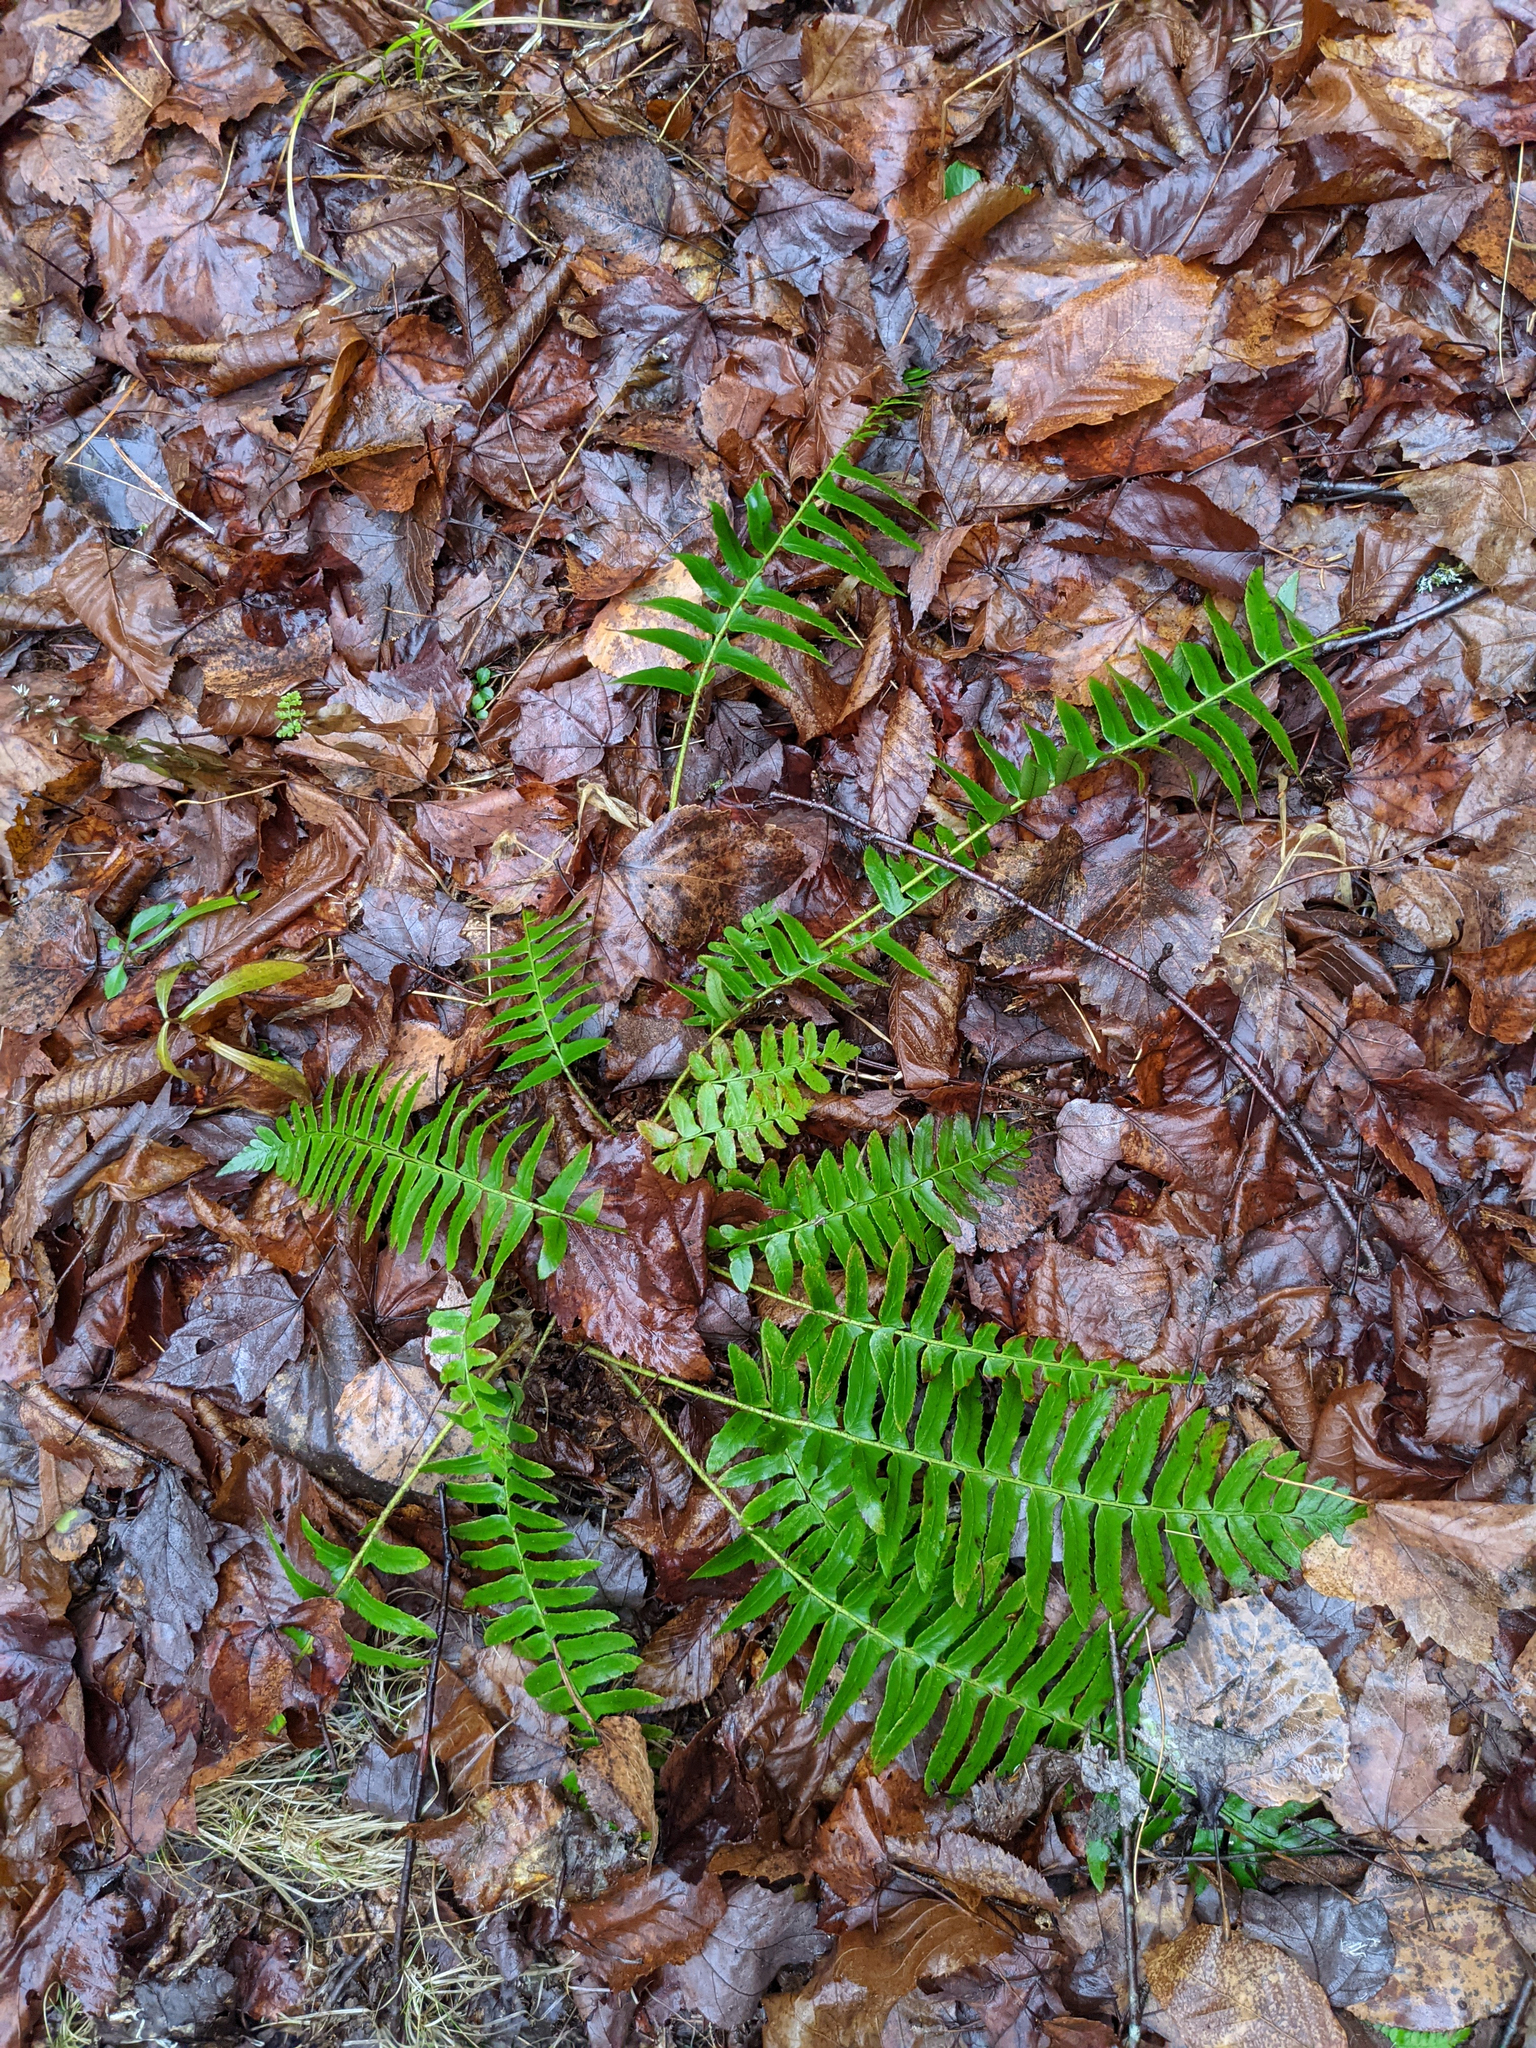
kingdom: Plantae
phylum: Tracheophyta
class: Polypodiopsida
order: Polypodiales
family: Dryopteridaceae
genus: Polystichum
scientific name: Polystichum acrostichoides
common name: Christmas fern
